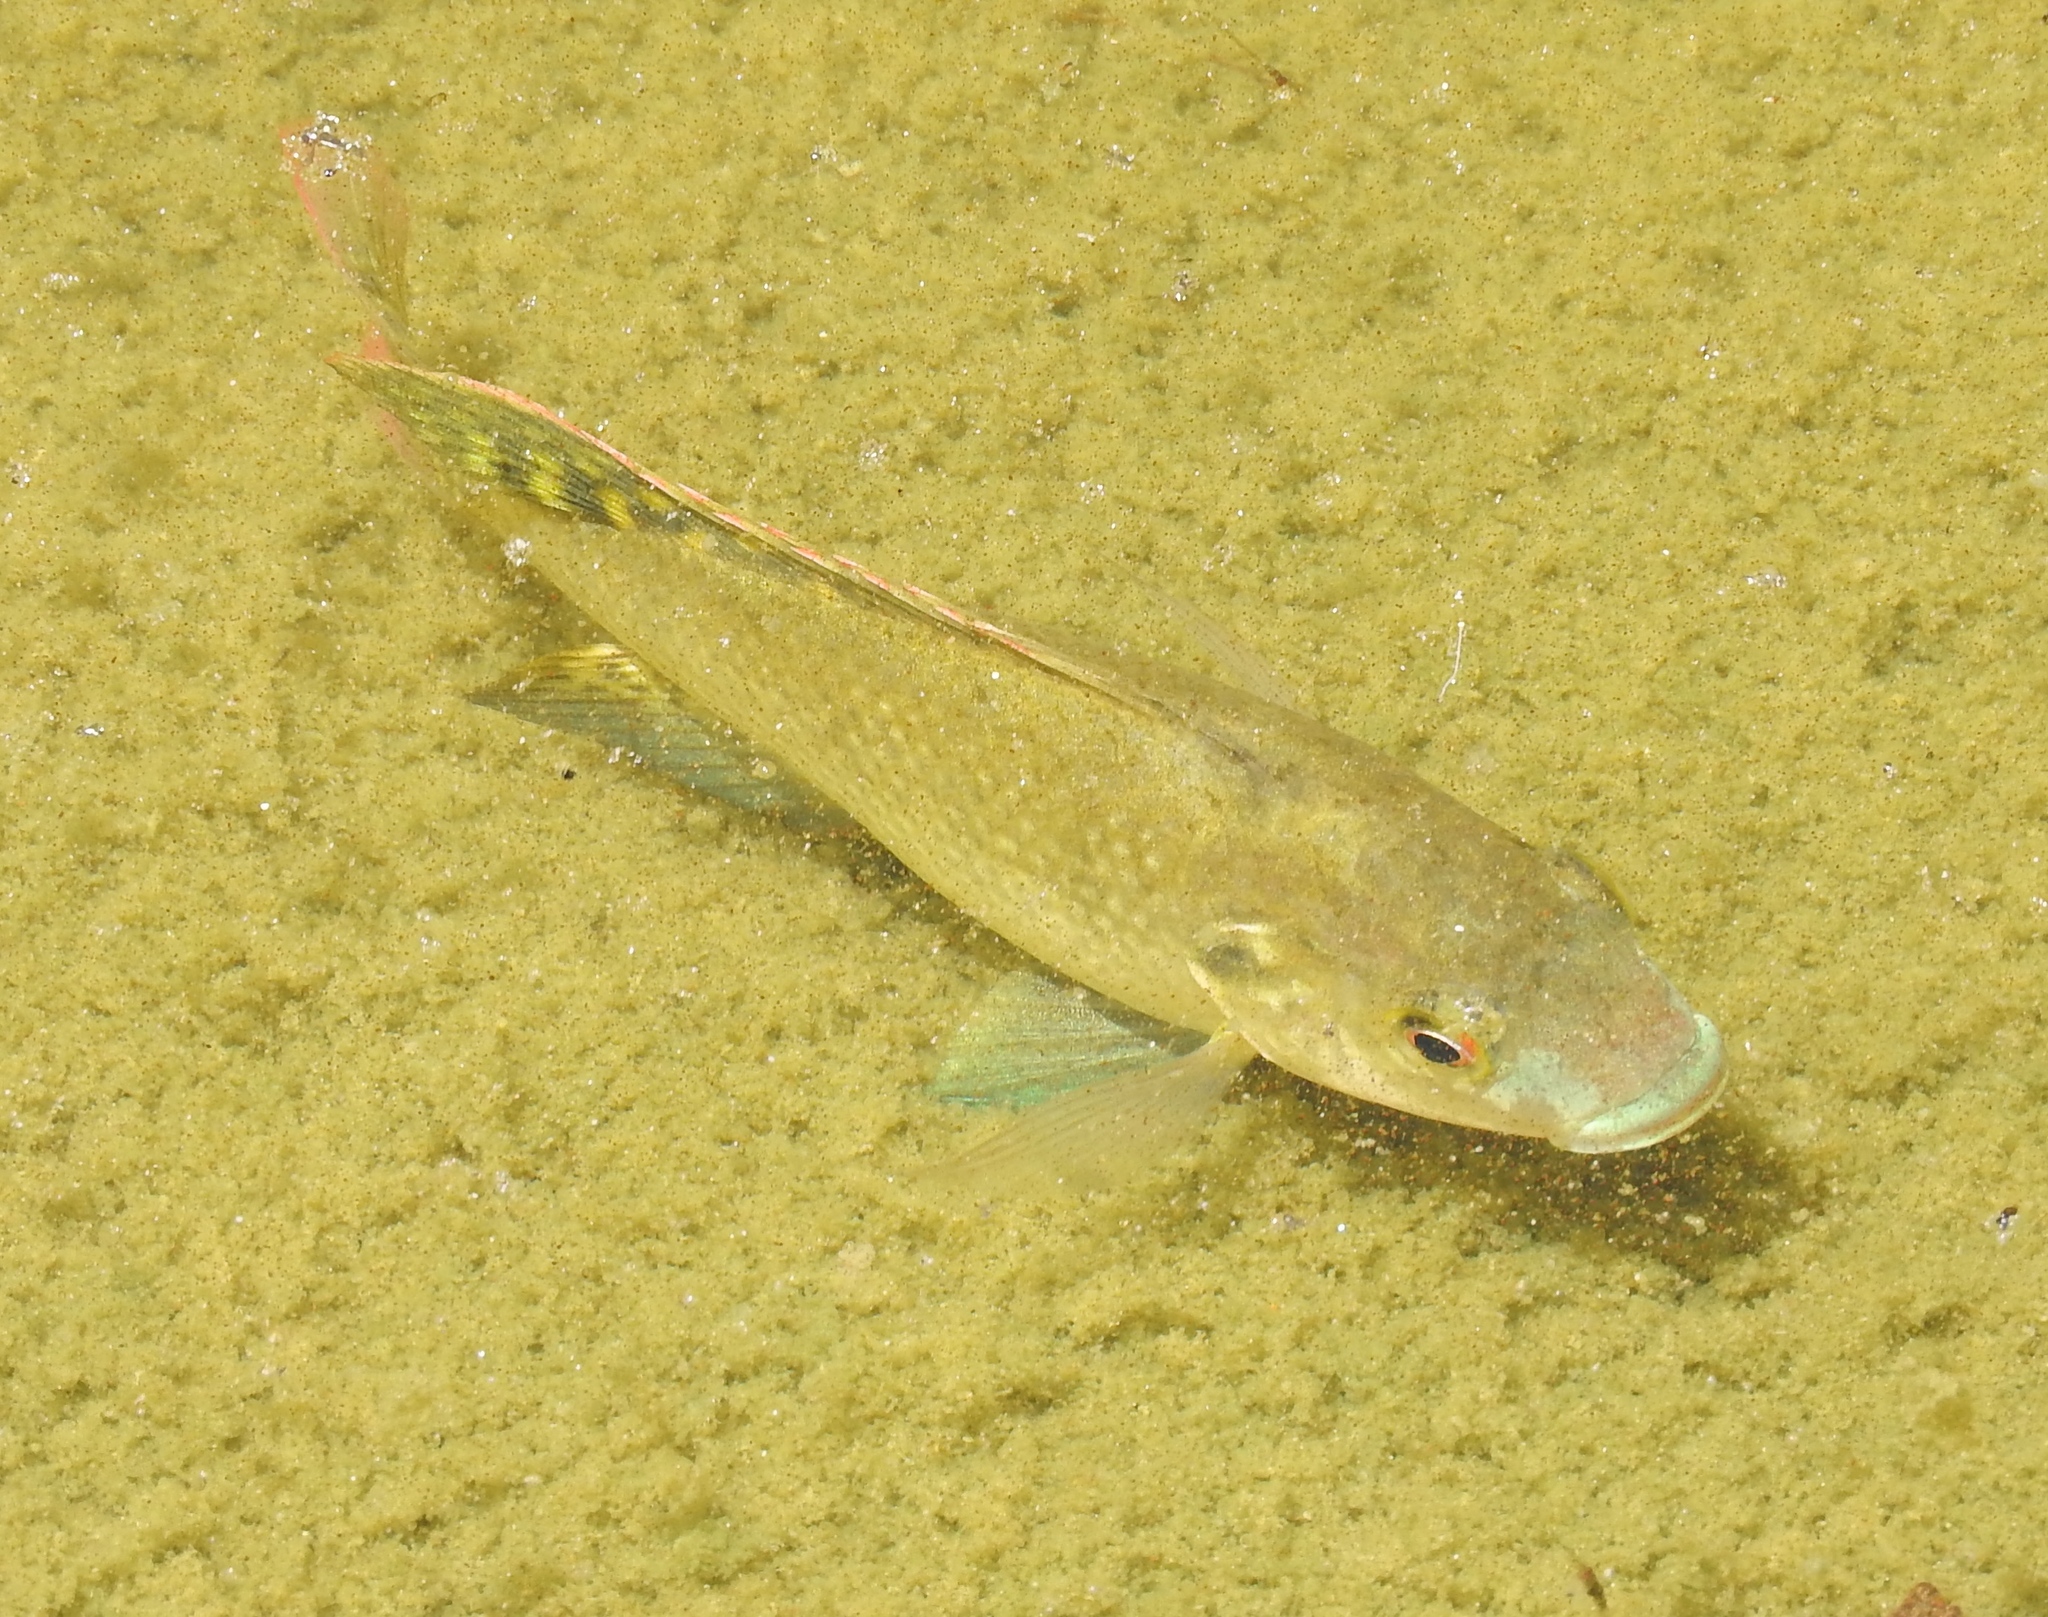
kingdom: Animalia
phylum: Chordata
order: Perciformes
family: Cichlidae
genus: Oreochromis
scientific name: Oreochromis
